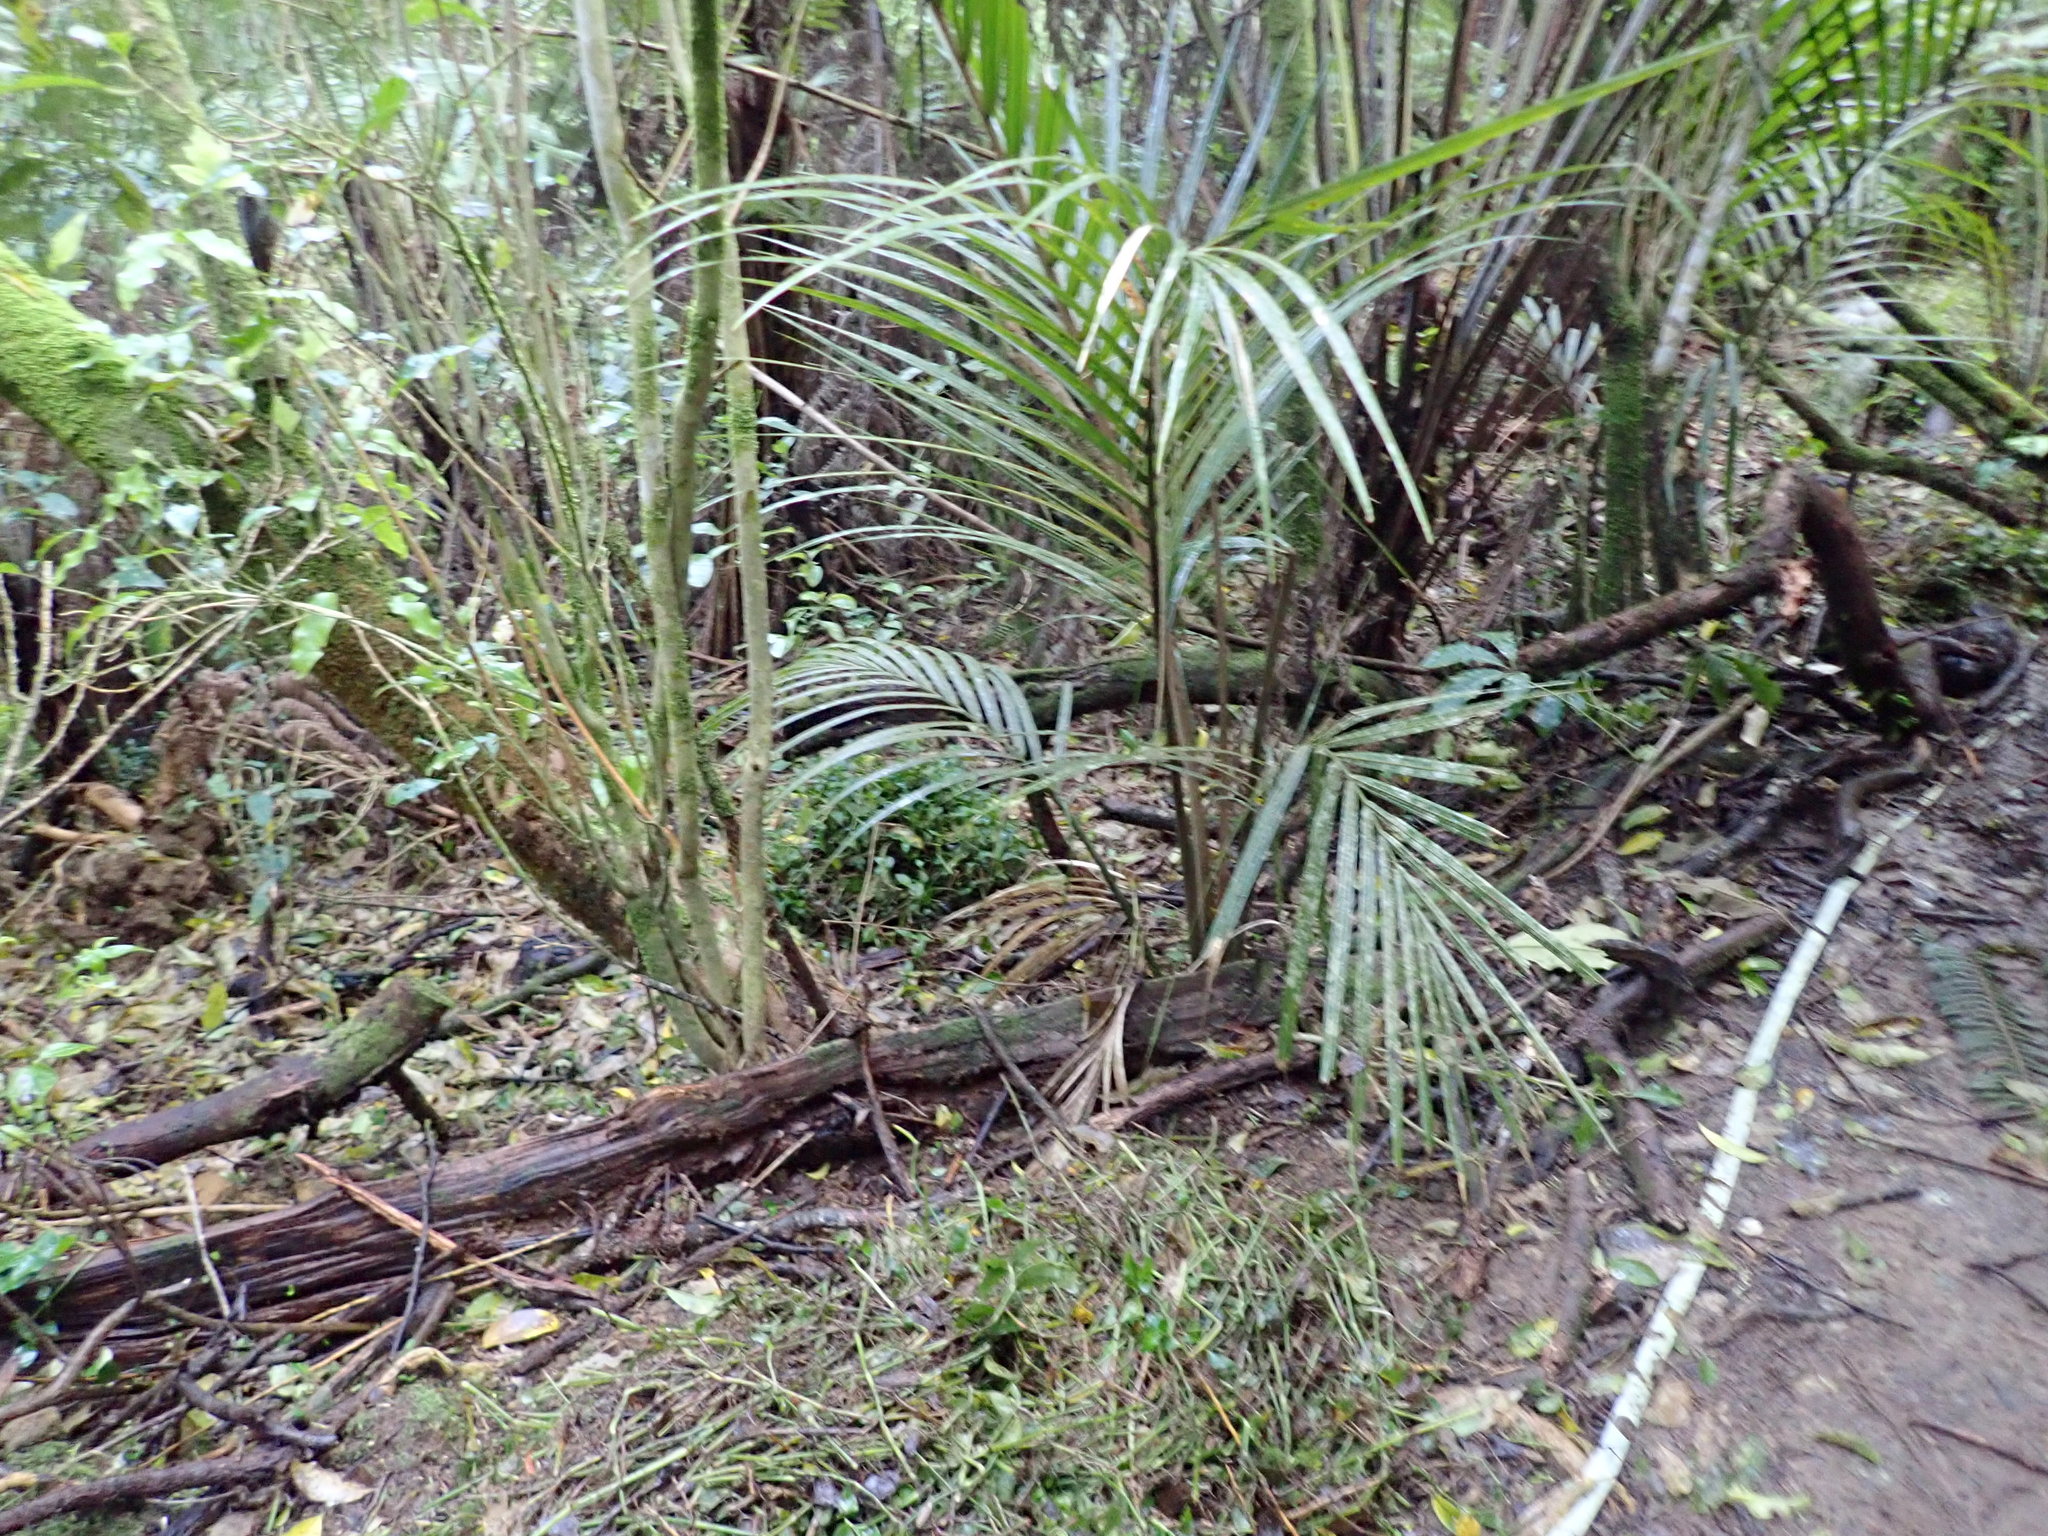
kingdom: Plantae
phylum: Tracheophyta
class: Liliopsida
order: Arecales
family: Arecaceae
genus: Rhopalostylis
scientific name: Rhopalostylis sapida
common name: Feather-duster palm
